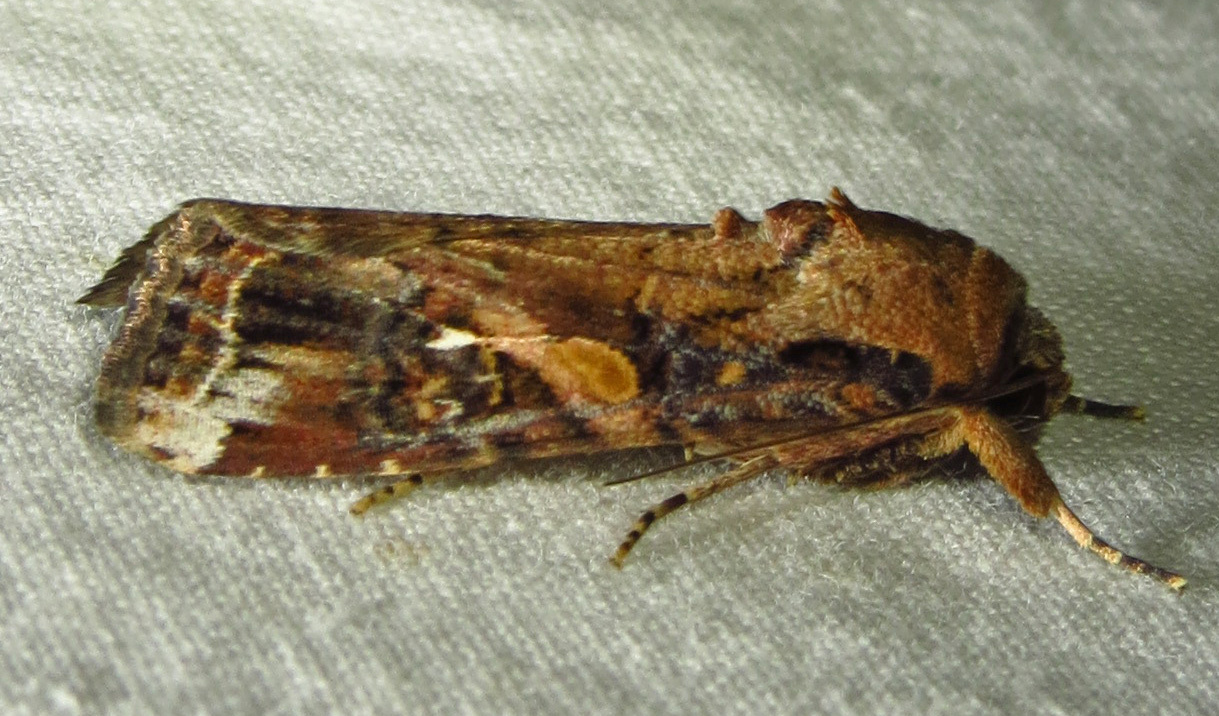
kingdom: Animalia
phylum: Arthropoda
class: Insecta
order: Lepidoptera
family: Noctuidae
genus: Spodoptera
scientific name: Spodoptera frugiperda
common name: Fall armyworm
